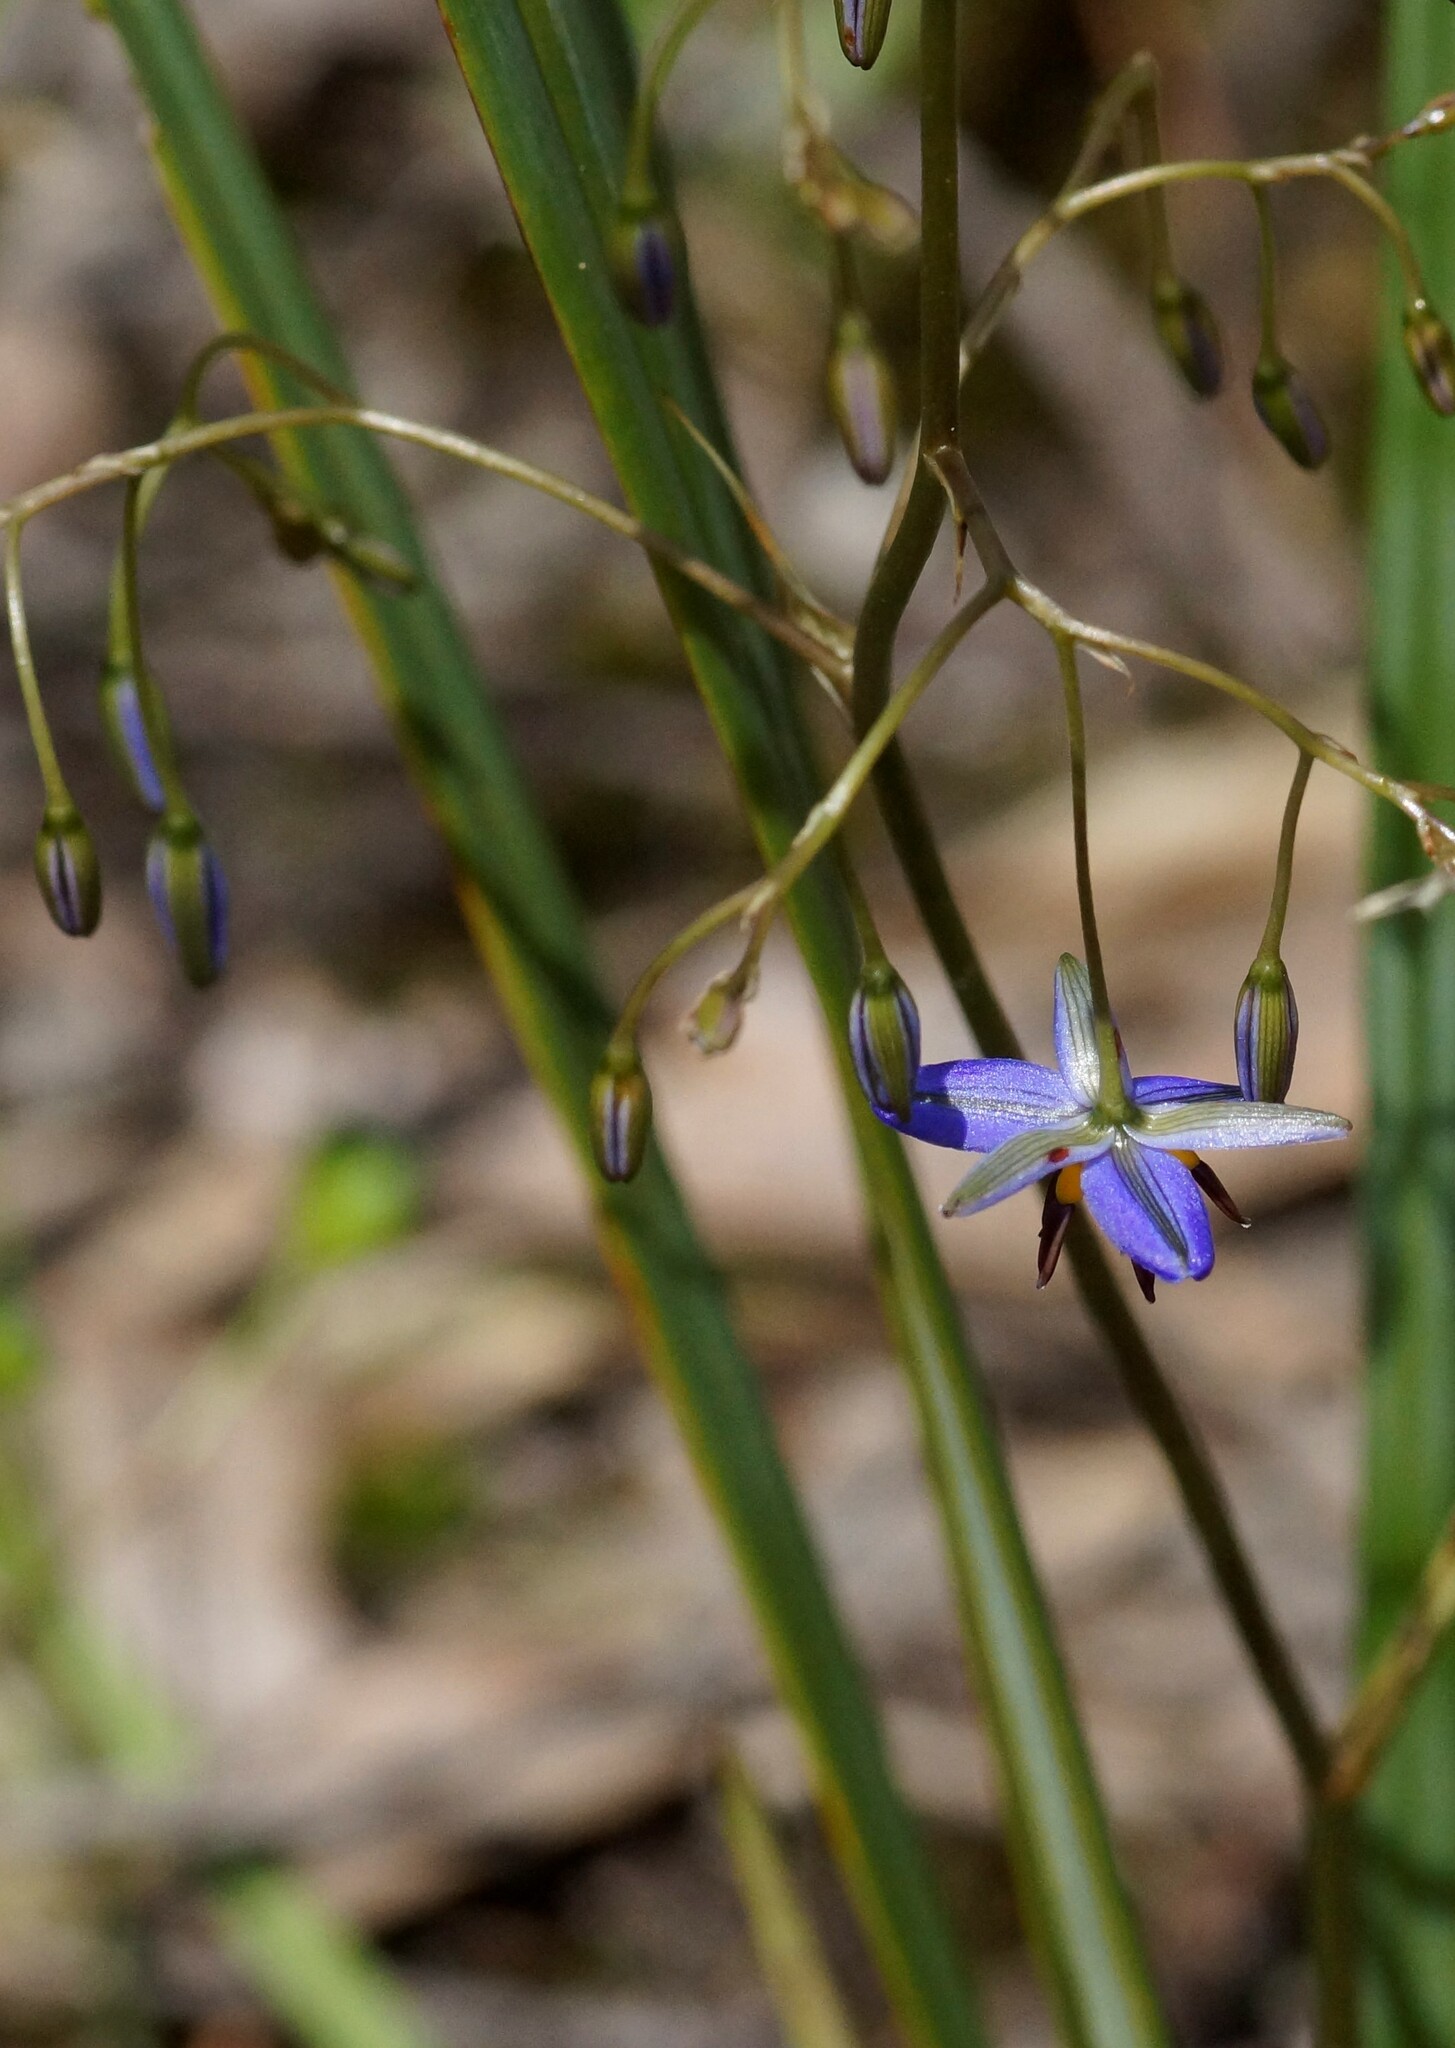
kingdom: Plantae
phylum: Tracheophyta
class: Liliopsida
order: Asparagales
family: Asphodelaceae
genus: Dianella
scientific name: Dianella revoluta
